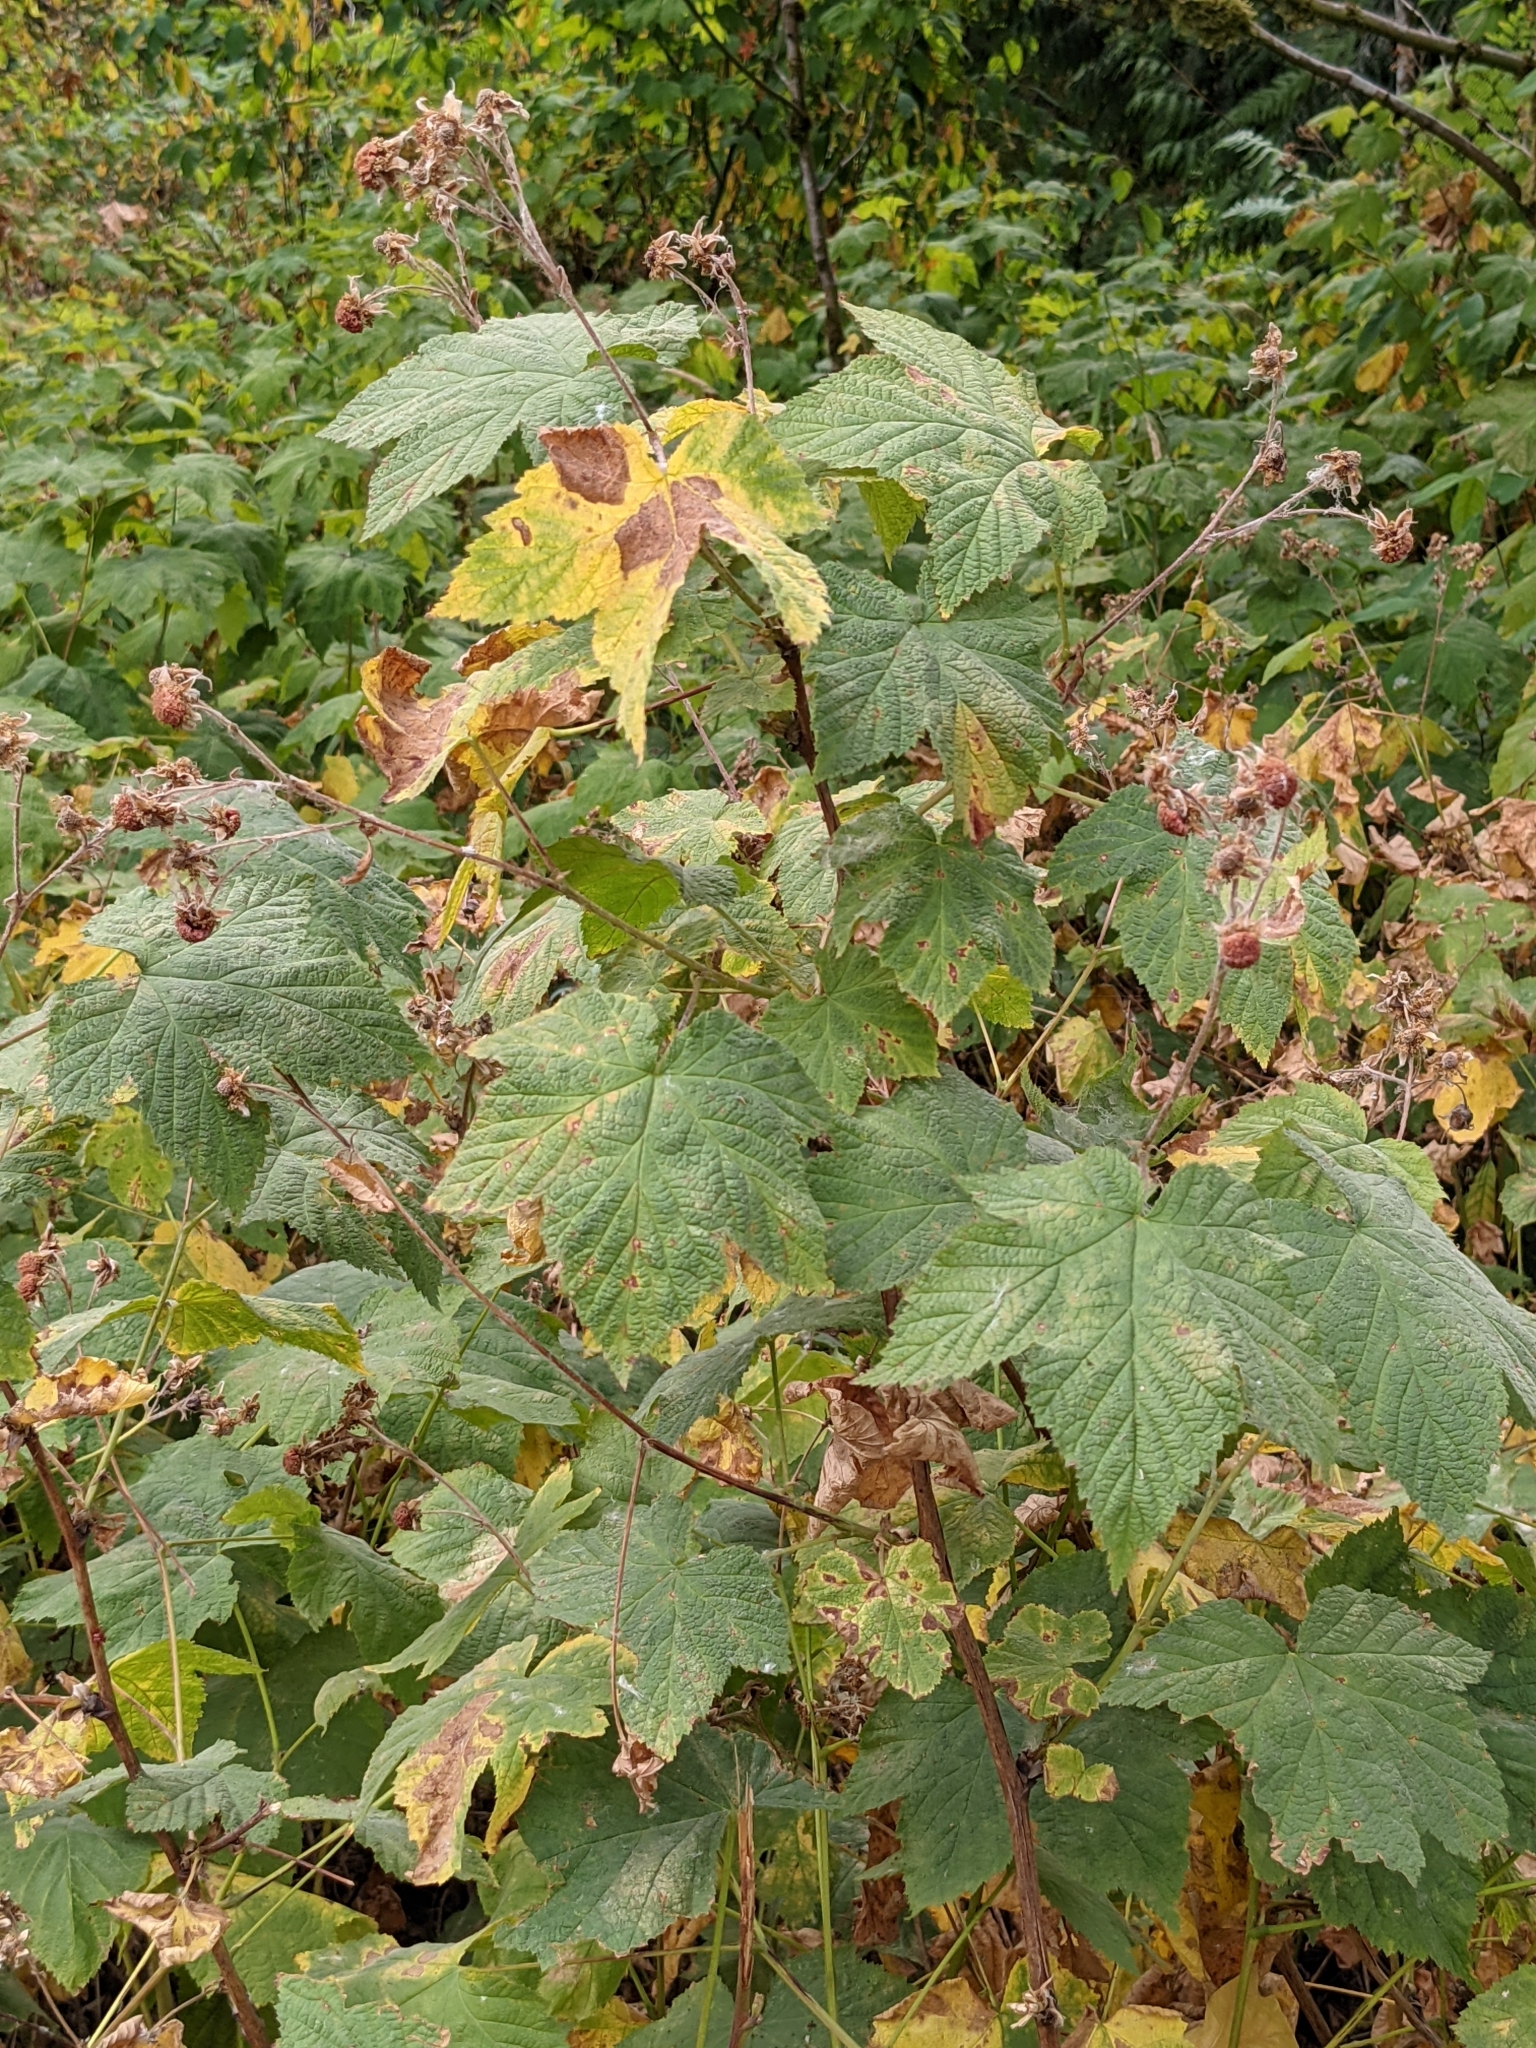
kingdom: Plantae
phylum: Tracheophyta
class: Magnoliopsida
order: Rosales
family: Rosaceae
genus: Rubus
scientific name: Rubus parviflorus
